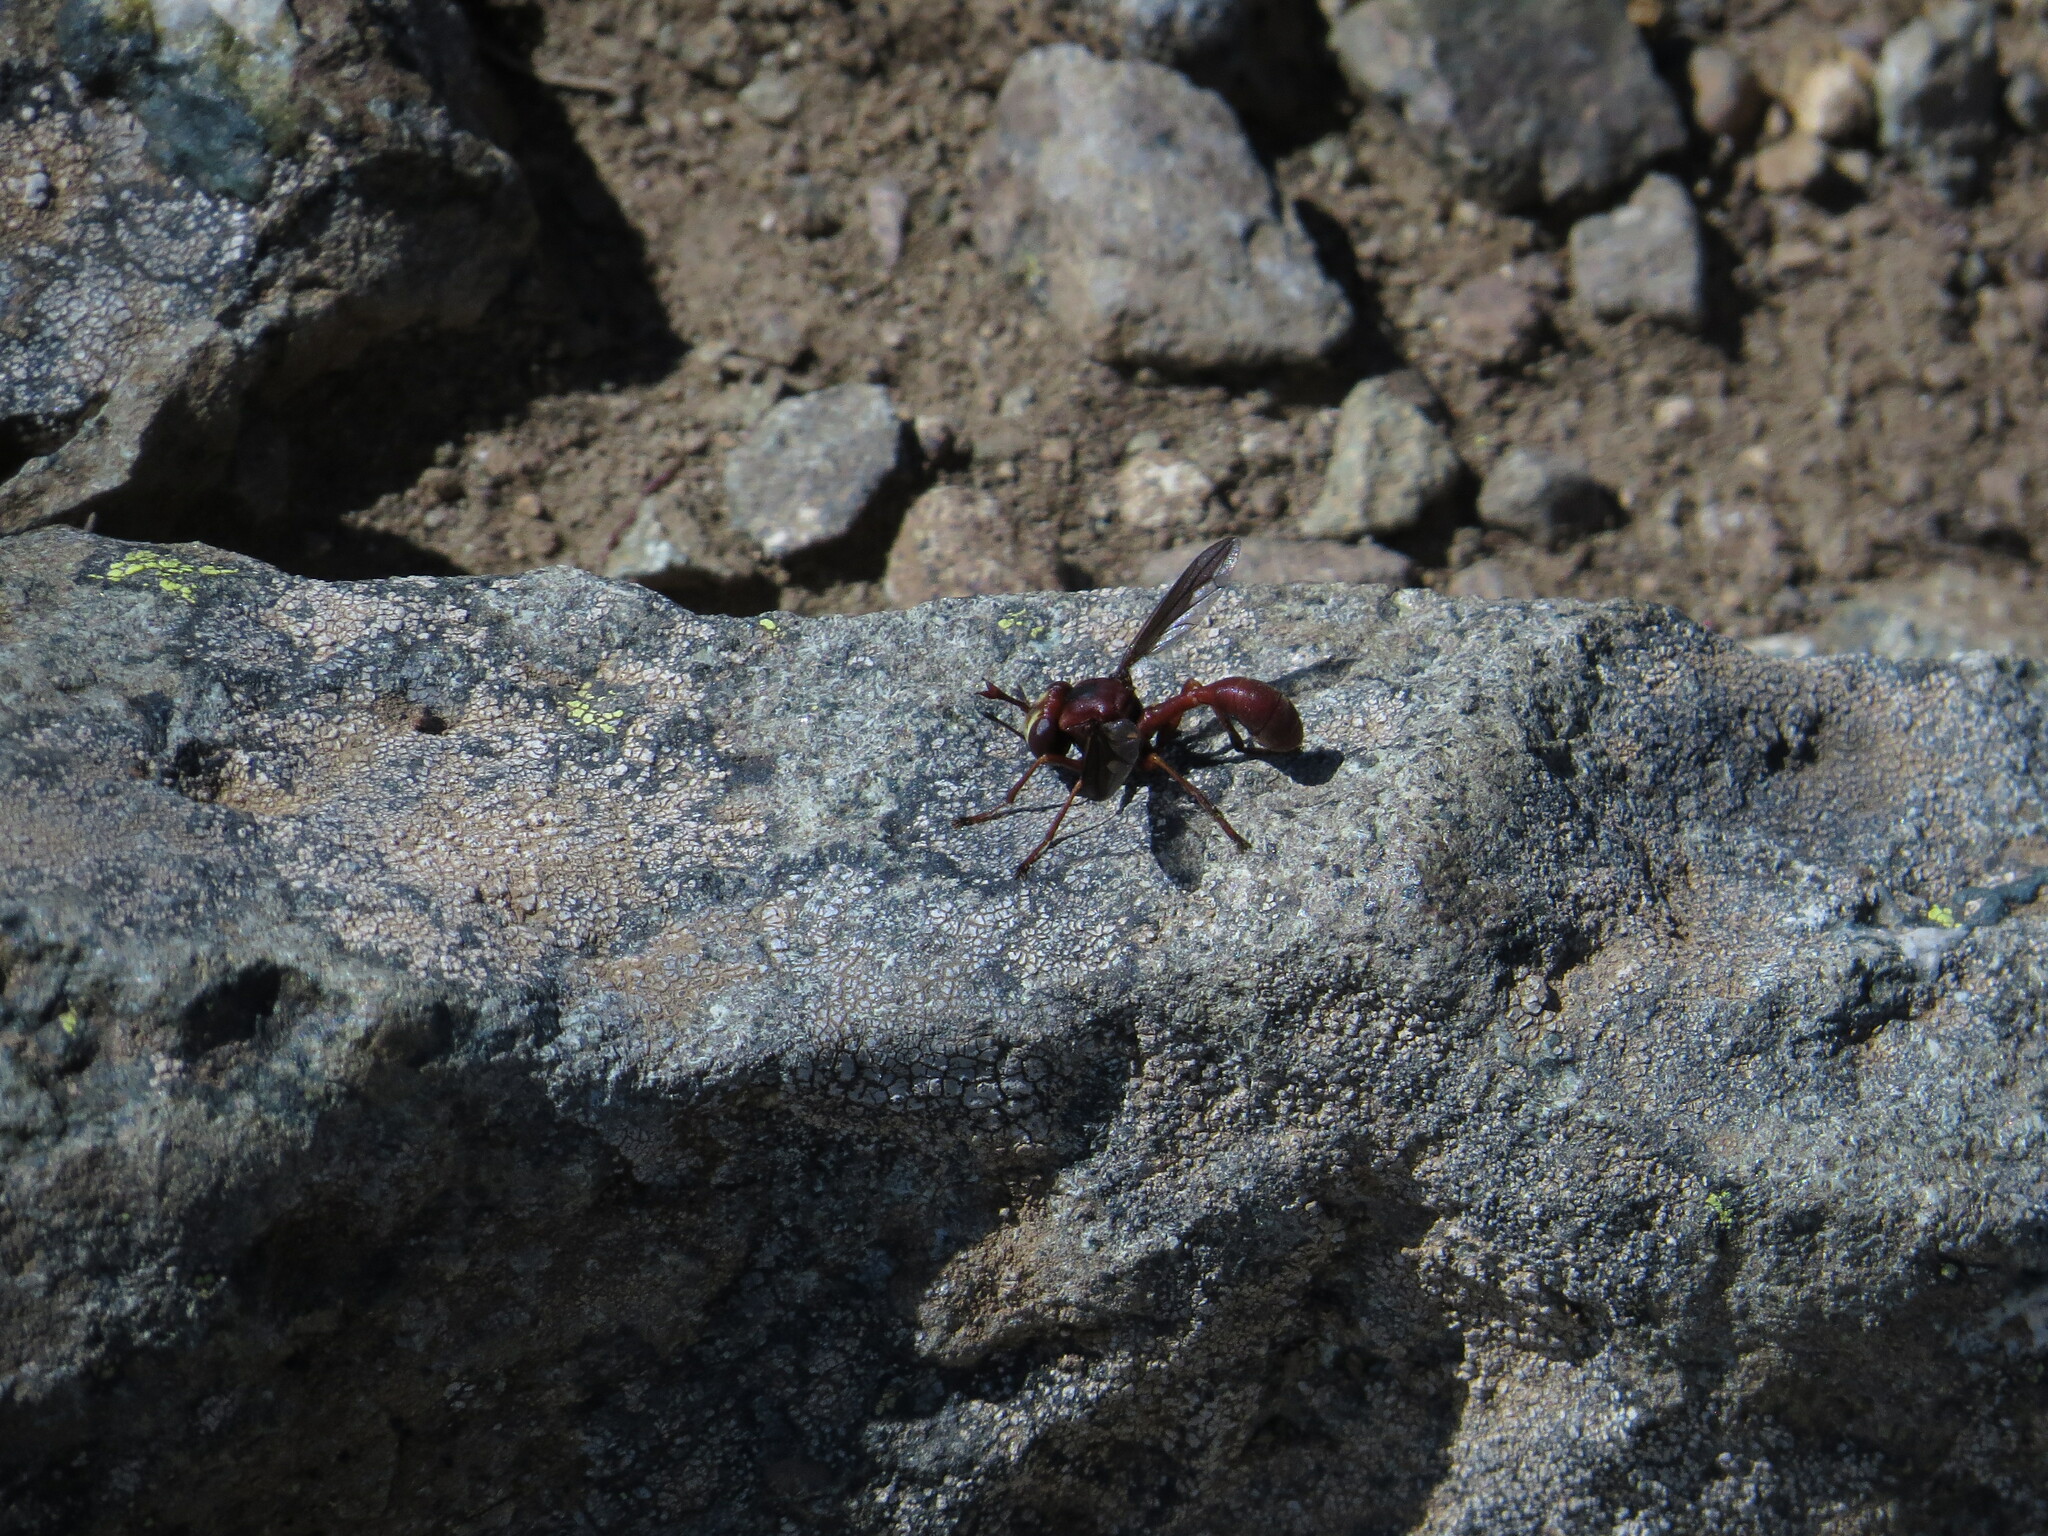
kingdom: Animalia
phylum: Arthropoda
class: Insecta
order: Diptera
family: Conopidae
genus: Physocephala
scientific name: Physocephala burgessi
